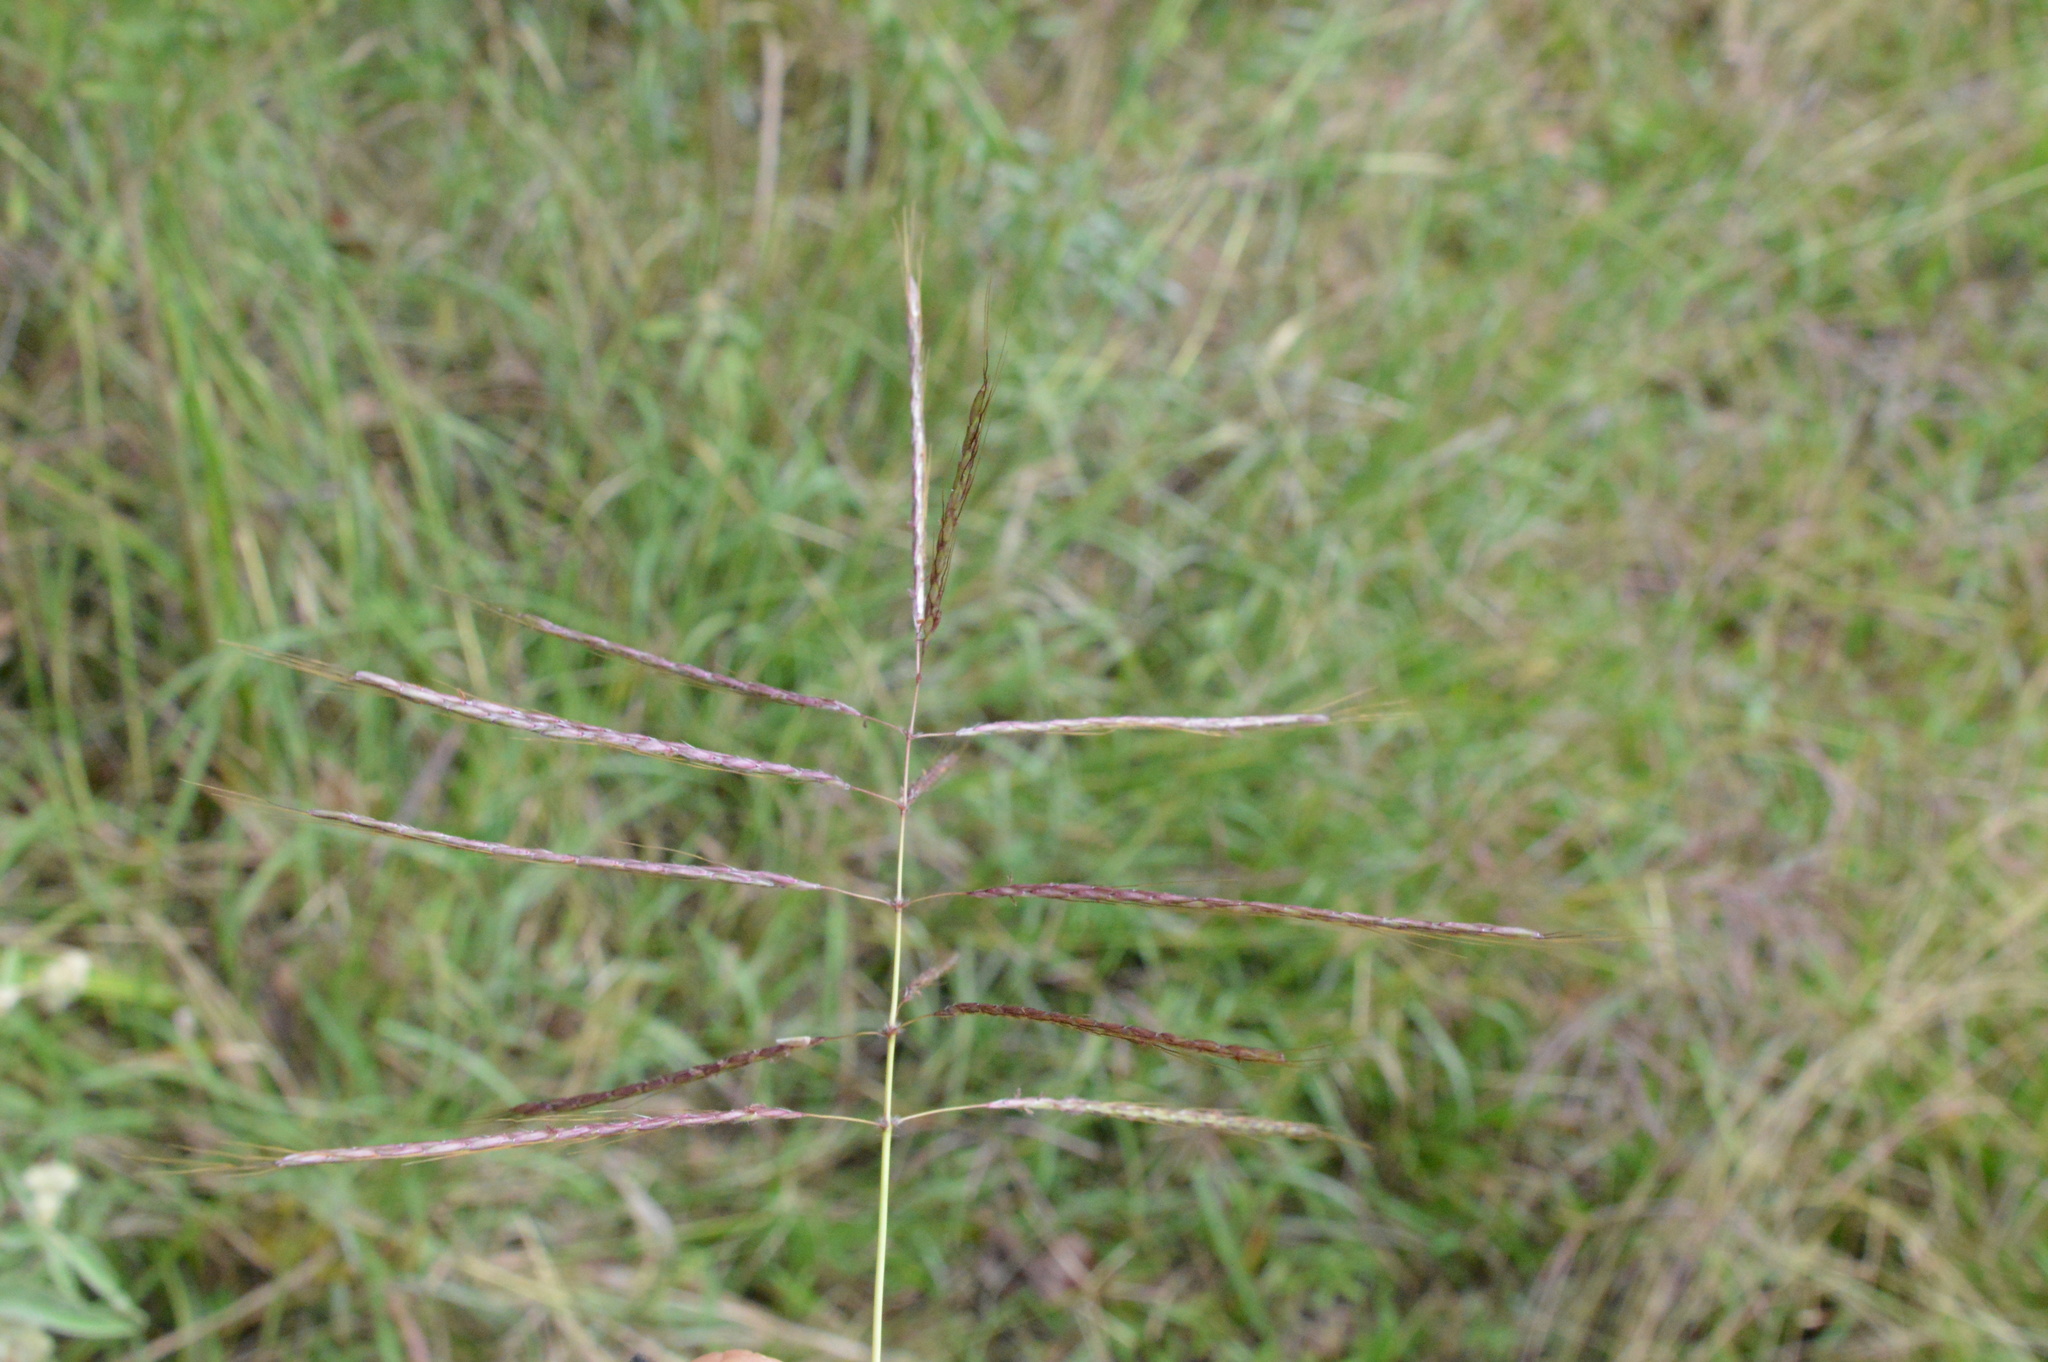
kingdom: Plantae
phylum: Tracheophyta
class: Liliopsida
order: Poales
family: Poaceae
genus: Bothriochloa
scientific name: Bothriochloa bladhii
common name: Caucasian bluestem
